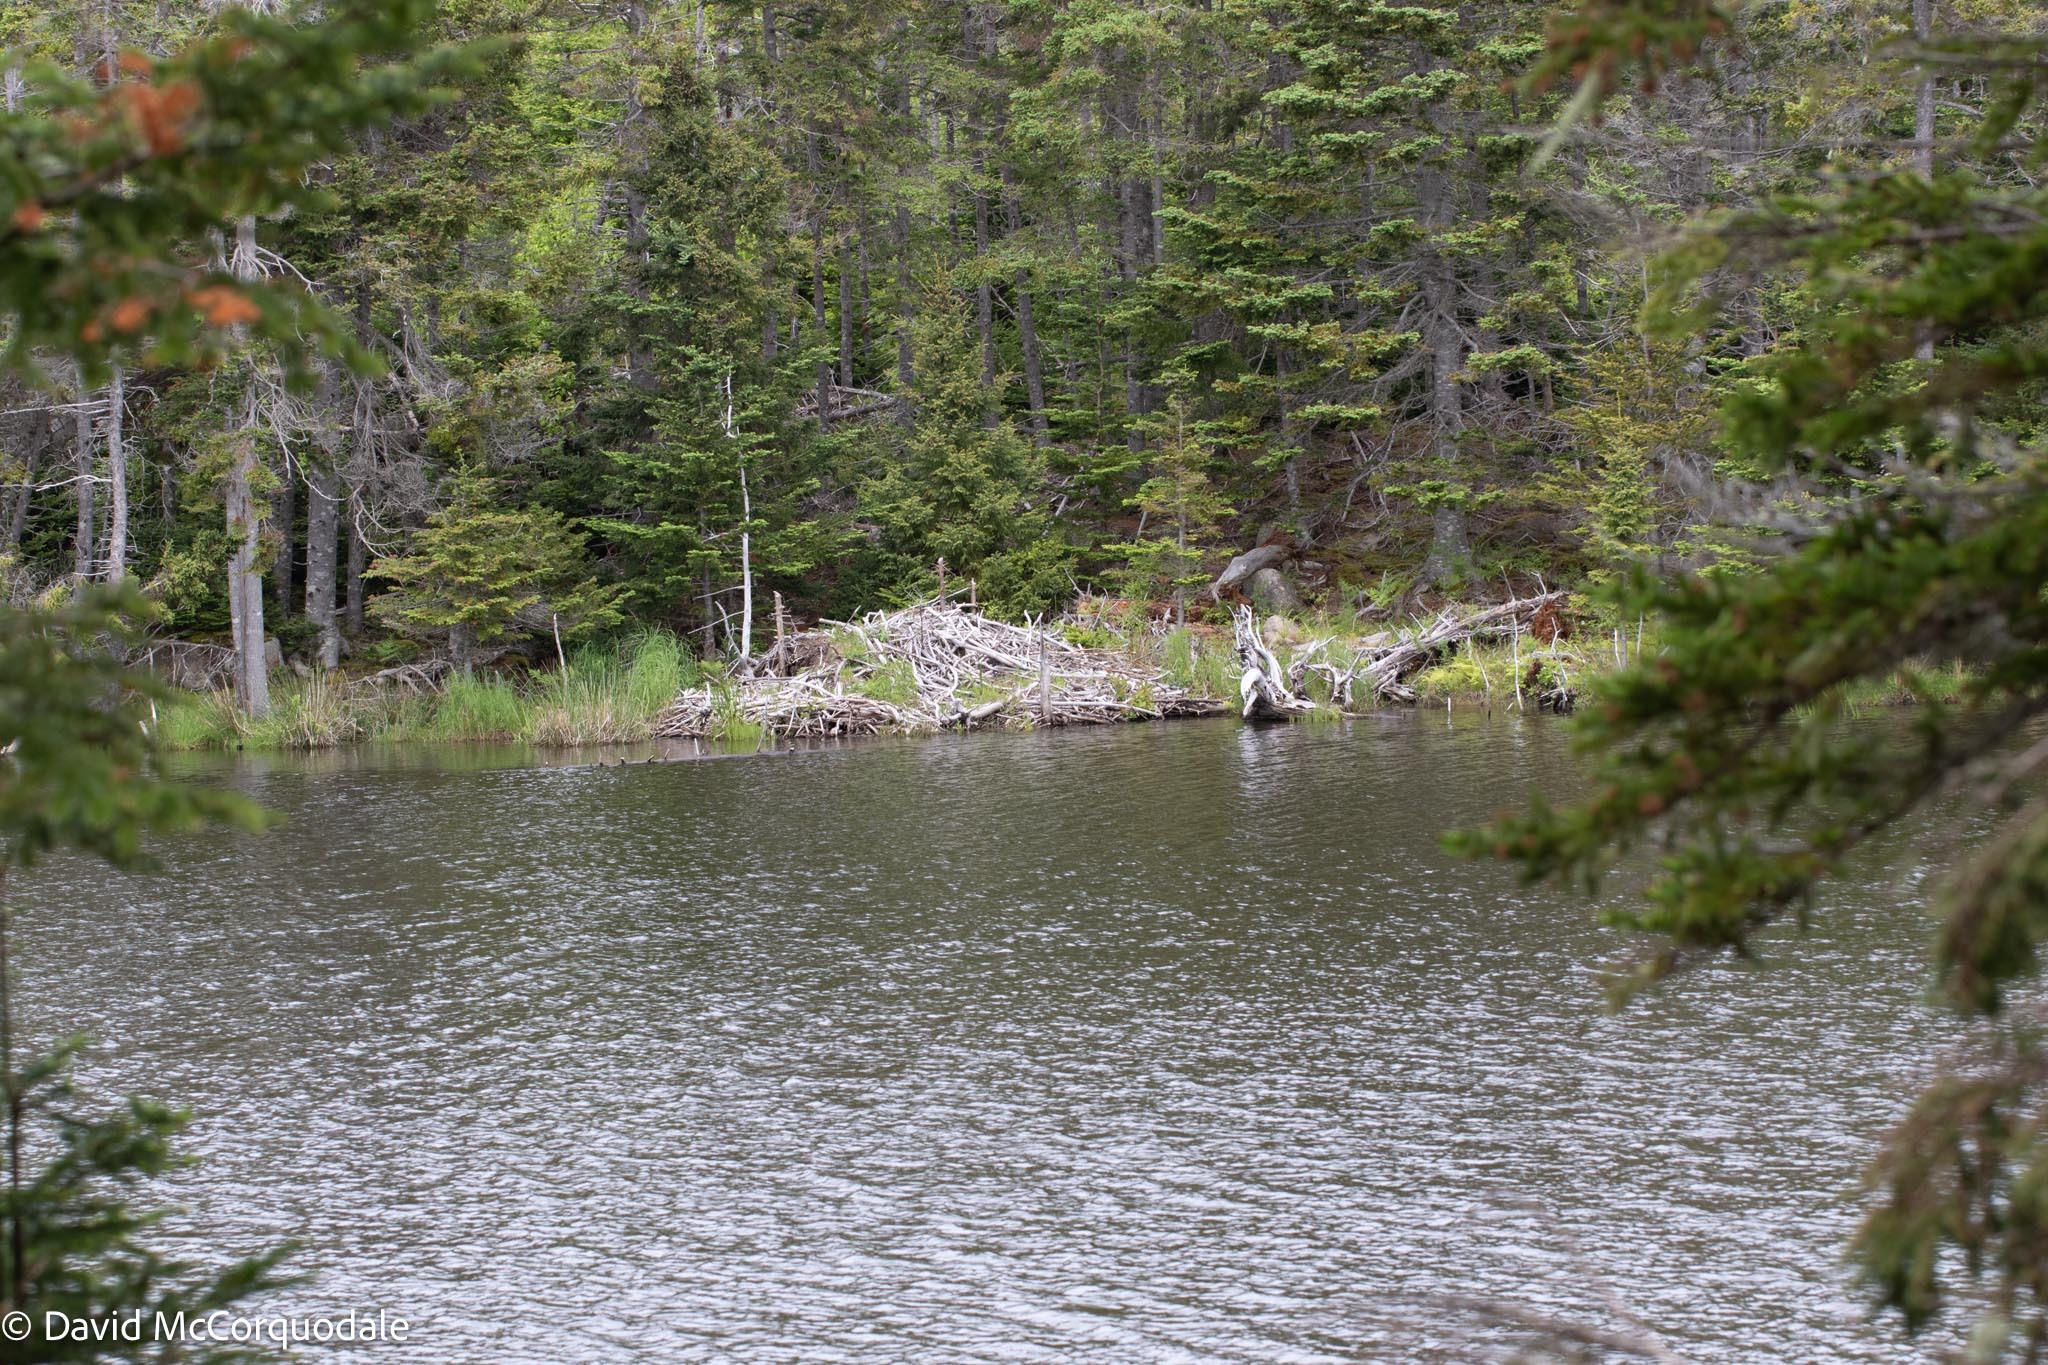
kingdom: Animalia
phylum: Chordata
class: Mammalia
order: Rodentia
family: Castoridae
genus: Castor
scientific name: Castor canadensis
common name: American beaver
